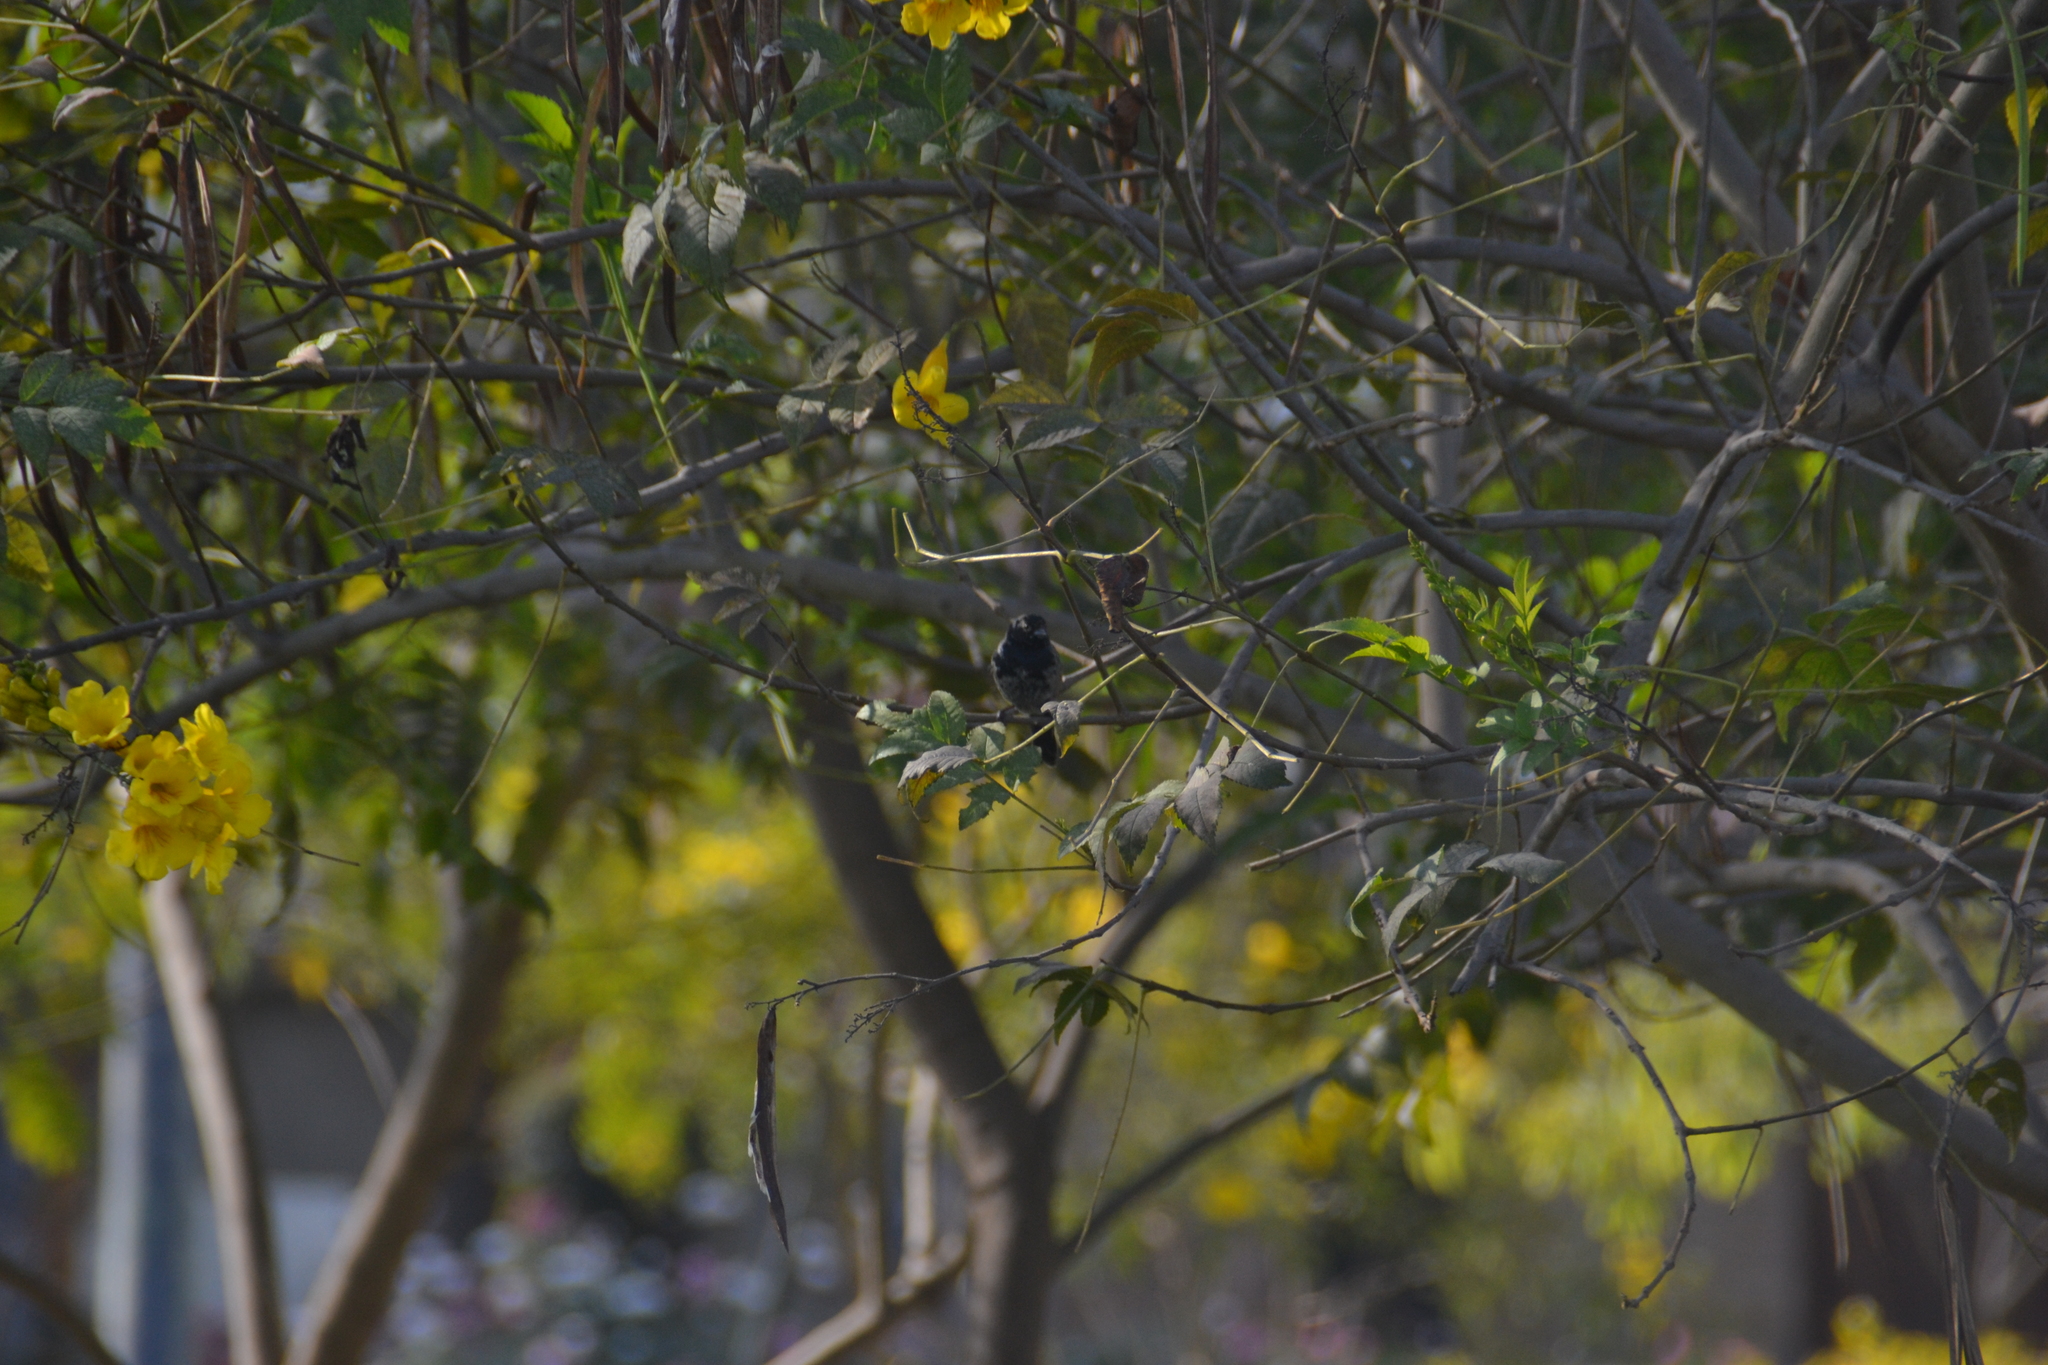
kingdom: Animalia
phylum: Chordata
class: Aves
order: Passeriformes
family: Thraupidae
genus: Volatinia
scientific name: Volatinia jacarina
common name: Blue-black grassquit
